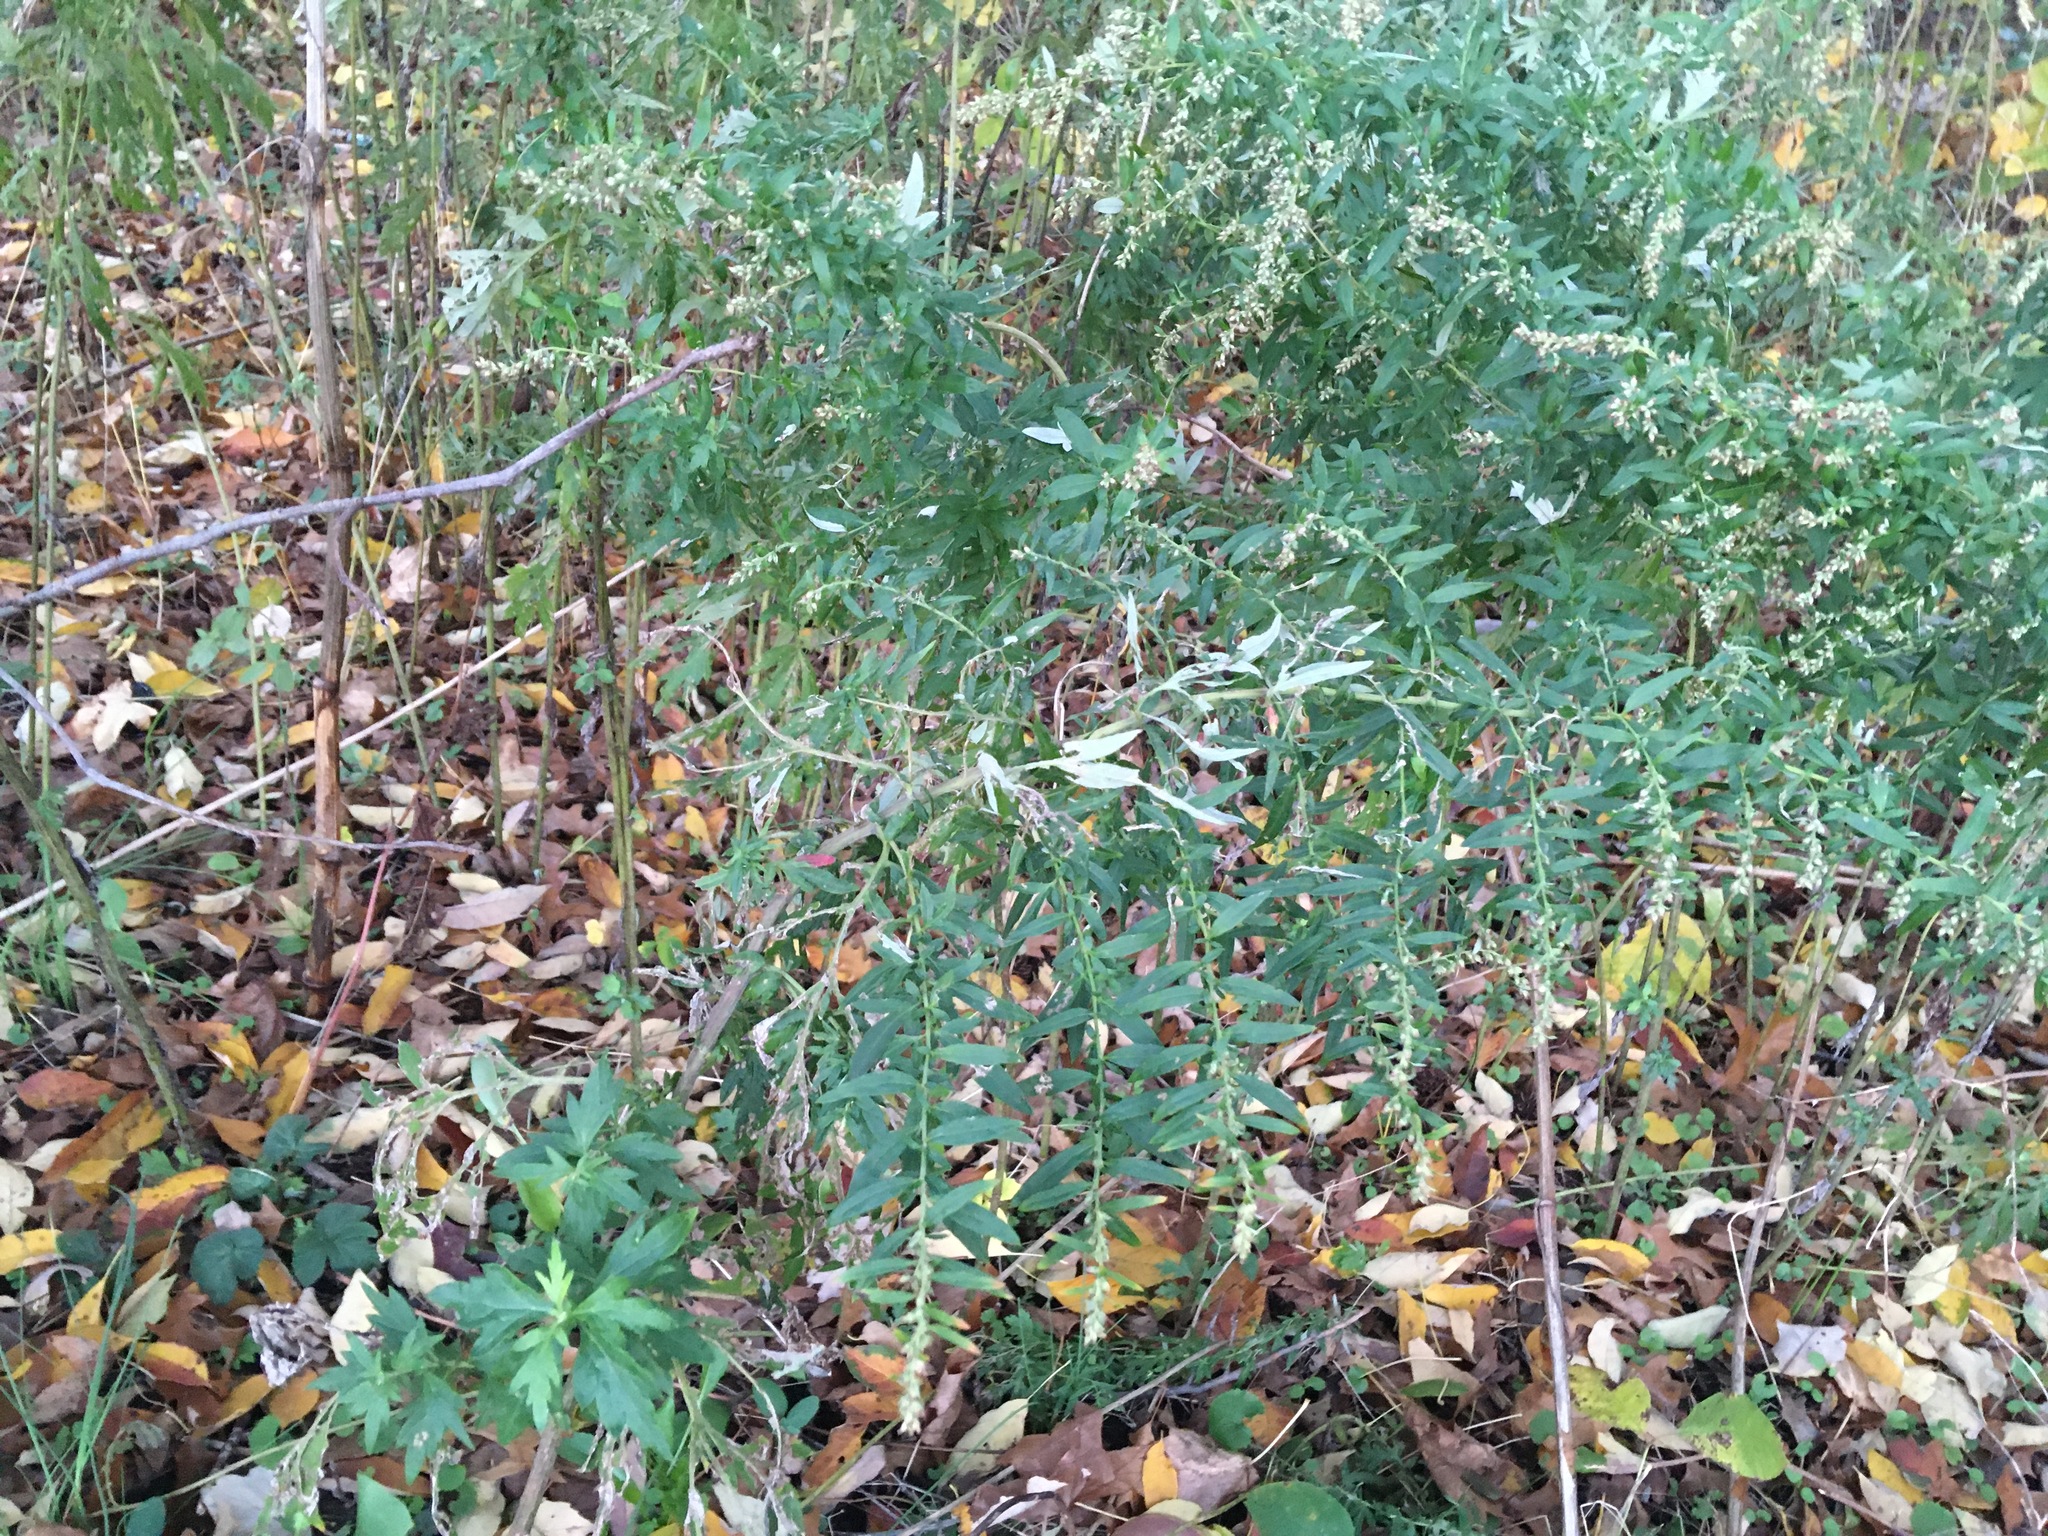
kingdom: Plantae
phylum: Tracheophyta
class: Magnoliopsida
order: Asterales
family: Asteraceae
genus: Artemisia
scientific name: Artemisia vulgaris
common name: Mugwort
